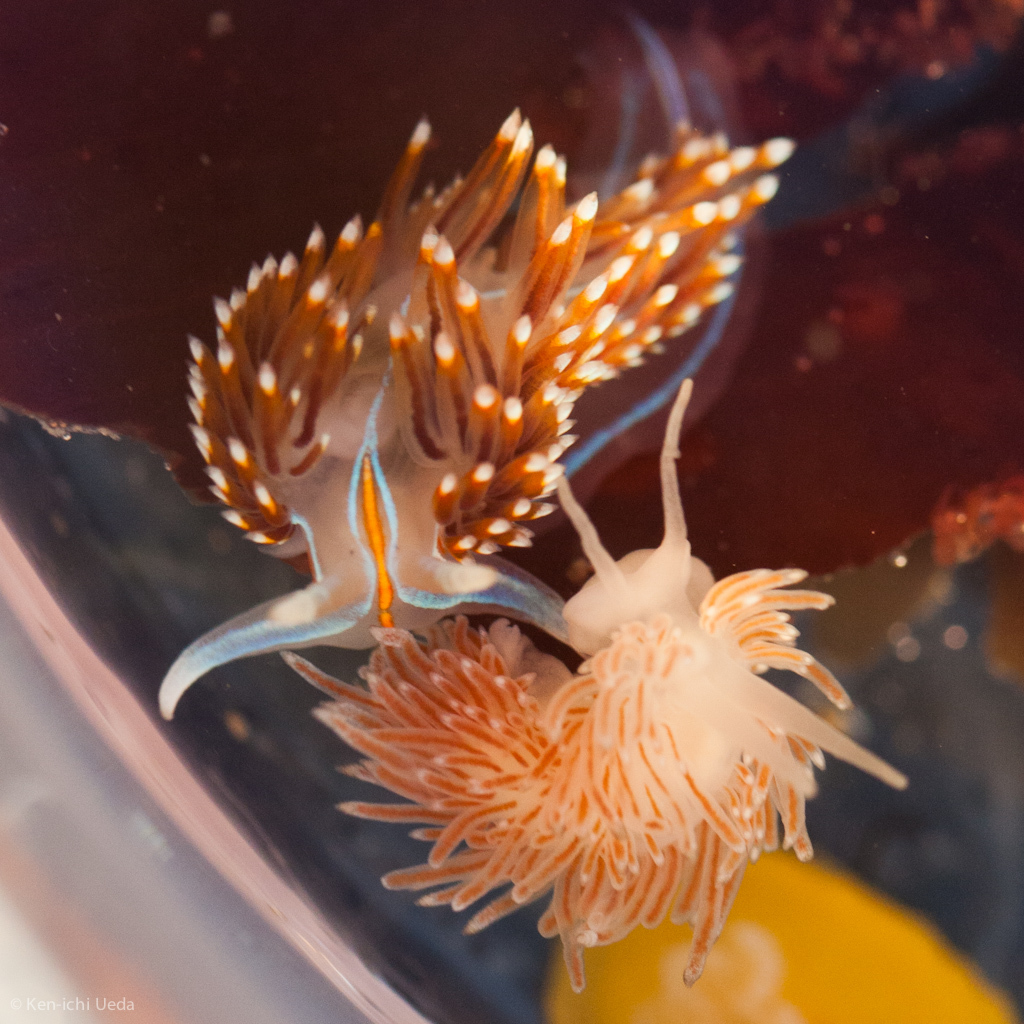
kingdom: Animalia
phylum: Mollusca
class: Gastropoda
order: Nudibranchia
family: Cuthonidae
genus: Cuthona
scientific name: Cuthona divae
